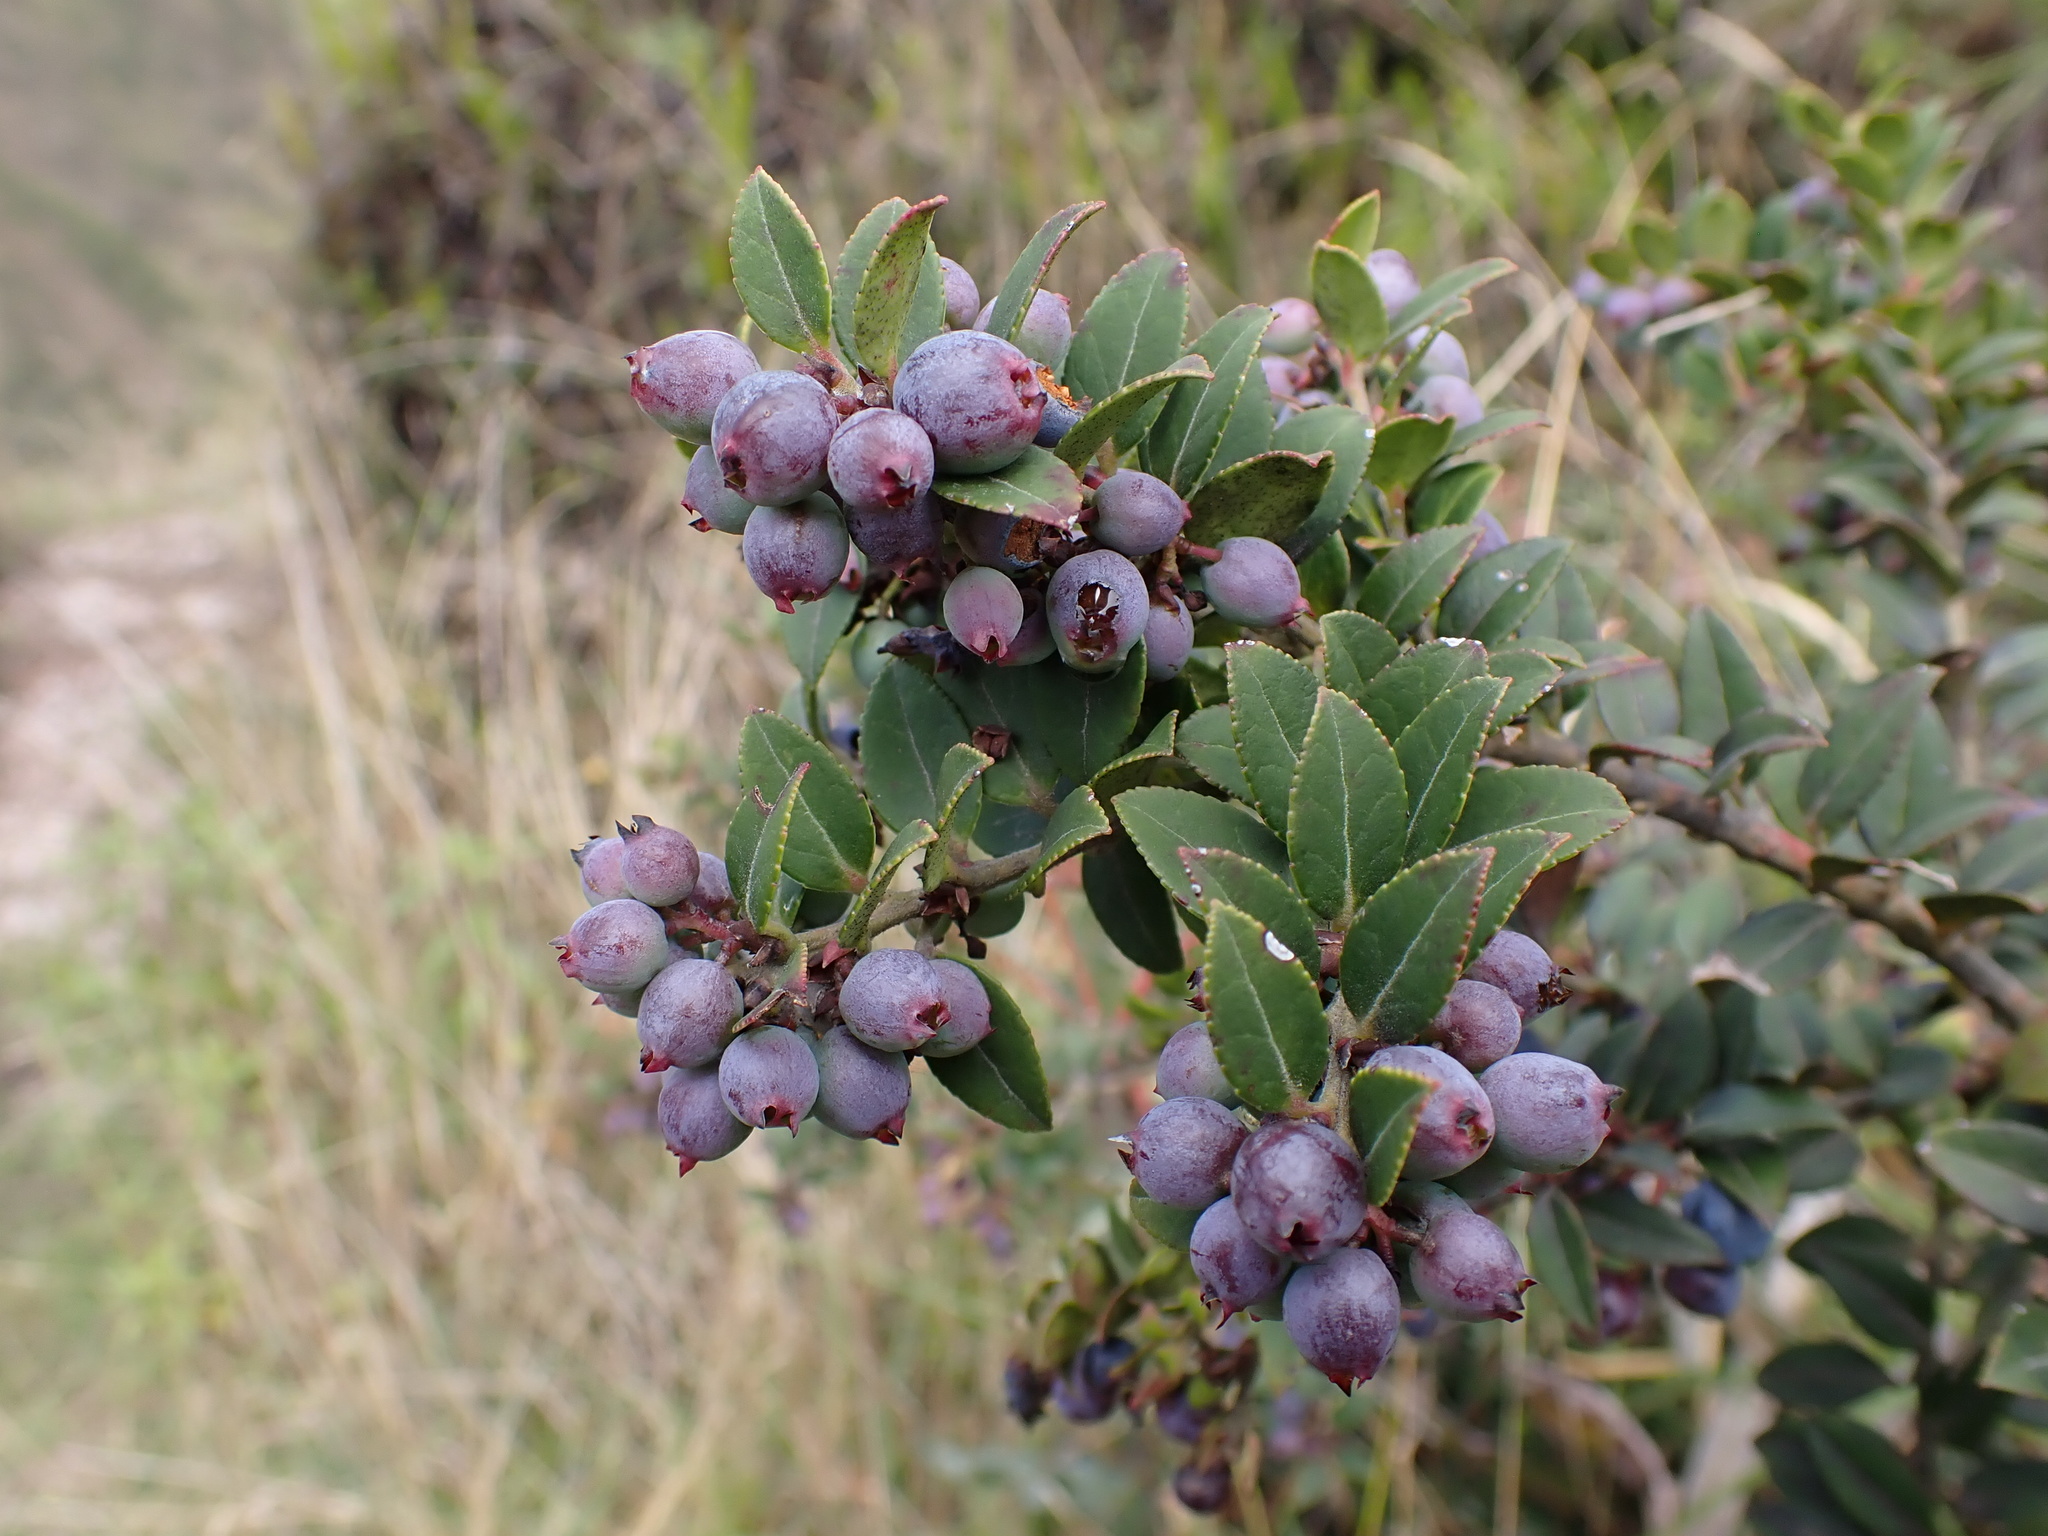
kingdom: Plantae
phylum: Tracheophyta
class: Magnoliopsida
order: Ericales
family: Ericaceae
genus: Vaccinium
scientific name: Vaccinium floribundum
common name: Colombian blueberry
